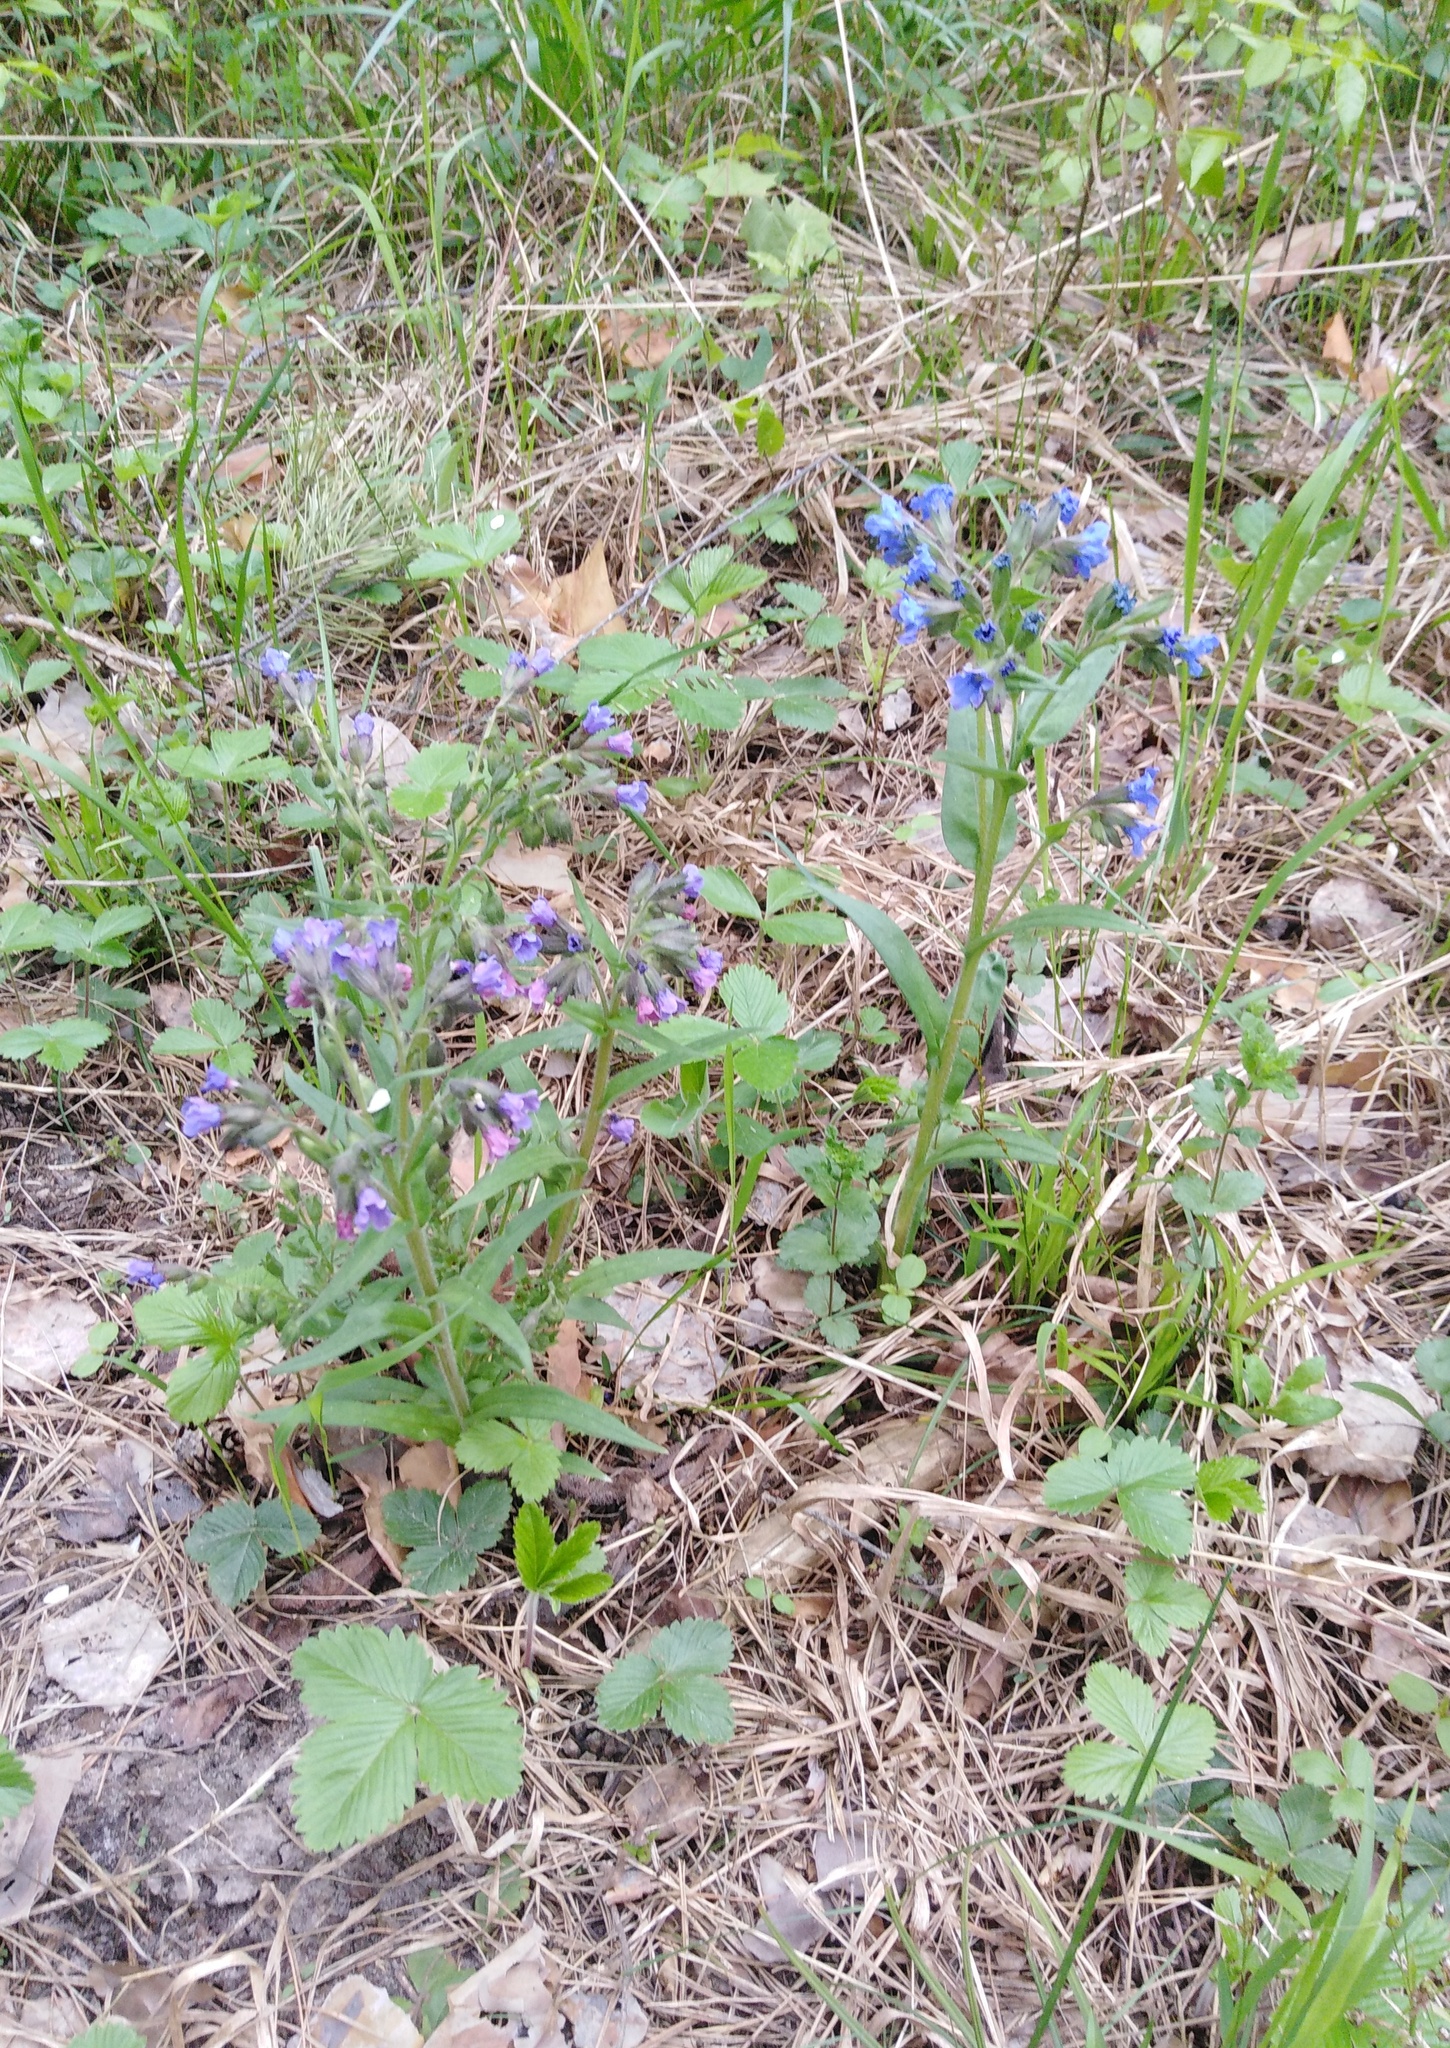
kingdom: Plantae
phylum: Tracheophyta
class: Magnoliopsida
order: Boraginales
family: Boraginaceae
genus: Pulmonaria
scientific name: Pulmonaria angustifolia
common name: Blue cowslip
